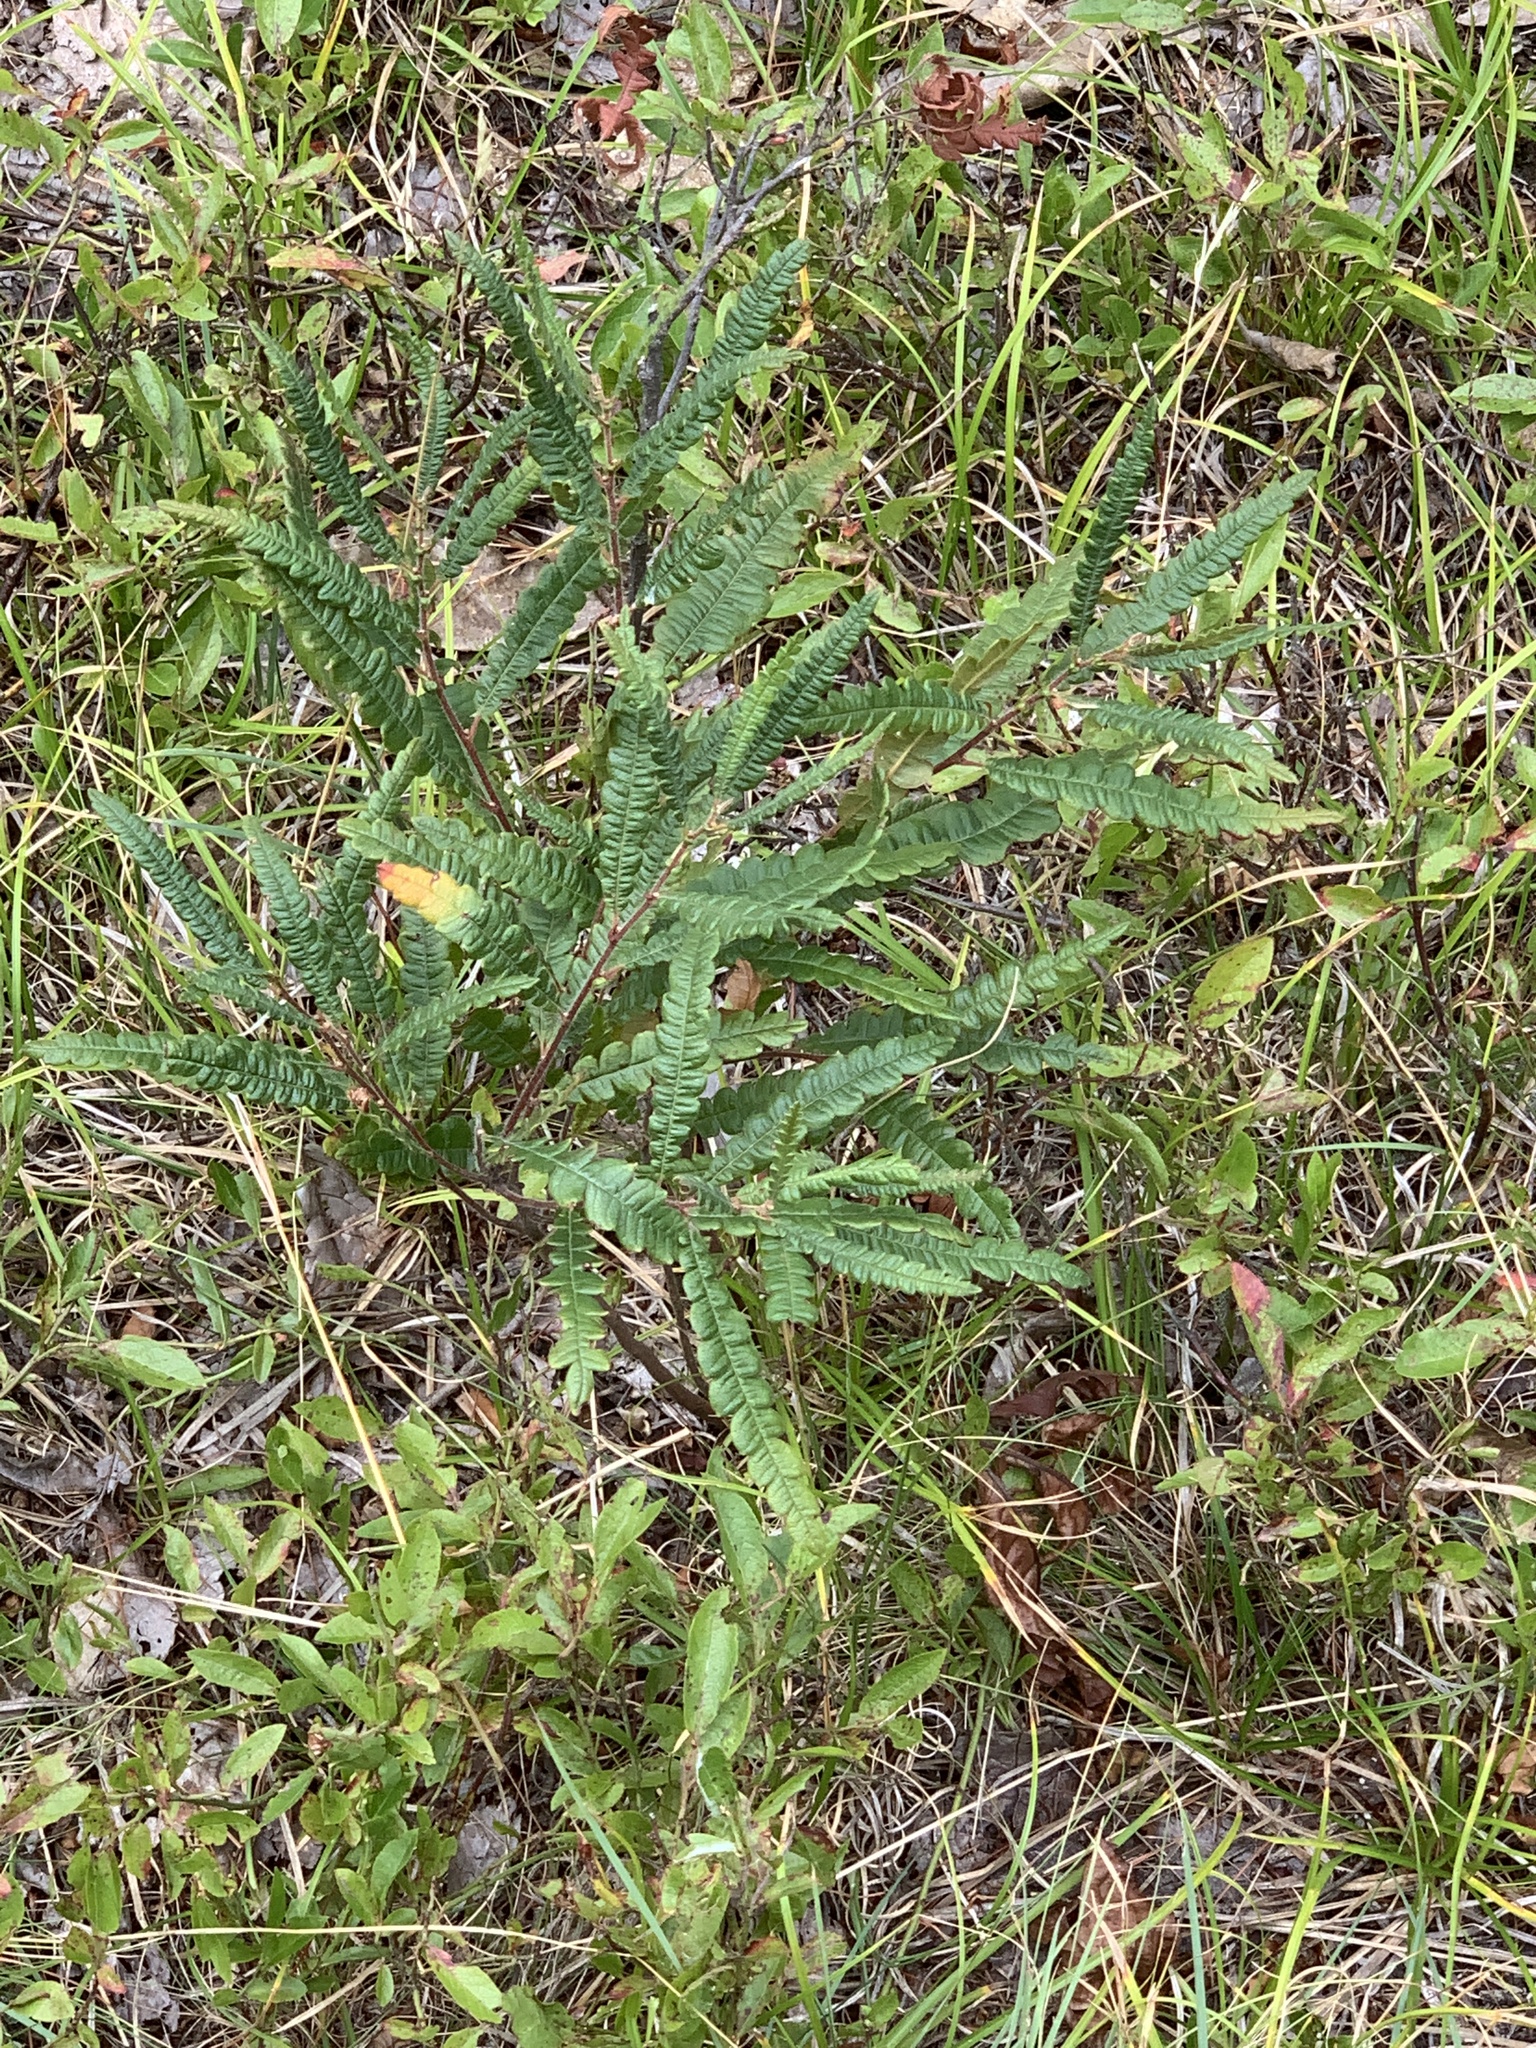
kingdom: Plantae
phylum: Tracheophyta
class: Magnoliopsida
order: Fagales
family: Myricaceae
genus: Comptonia
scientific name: Comptonia peregrina
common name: Sweet-fern
